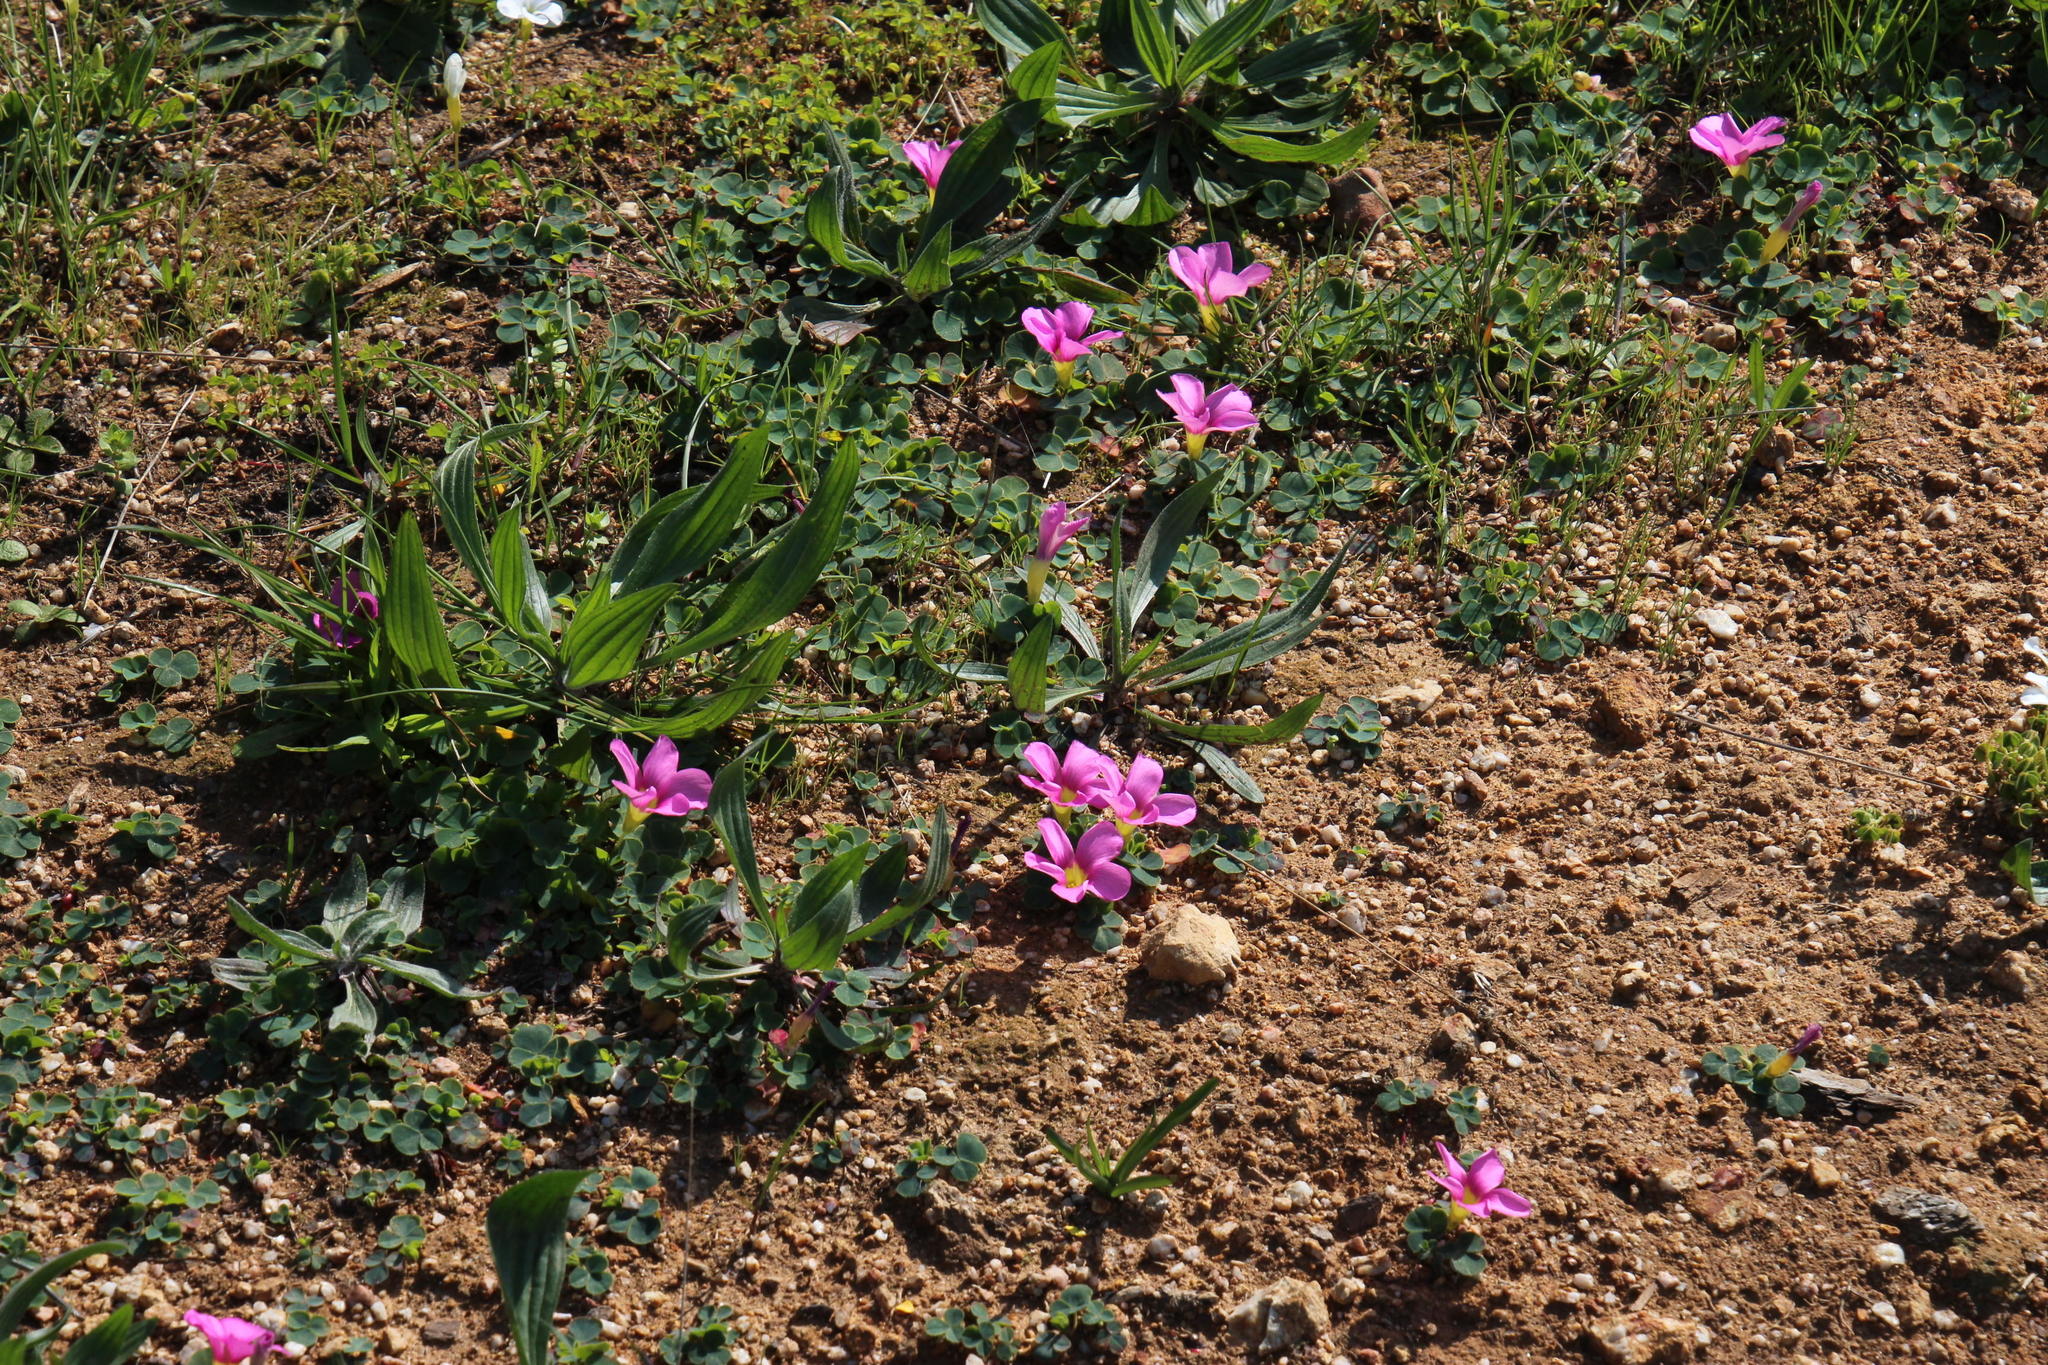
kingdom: Plantae
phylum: Tracheophyta
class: Magnoliopsida
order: Oxalidales
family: Oxalidaceae
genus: Oxalis
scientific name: Oxalis purpurea
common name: Purple woodsorrel
